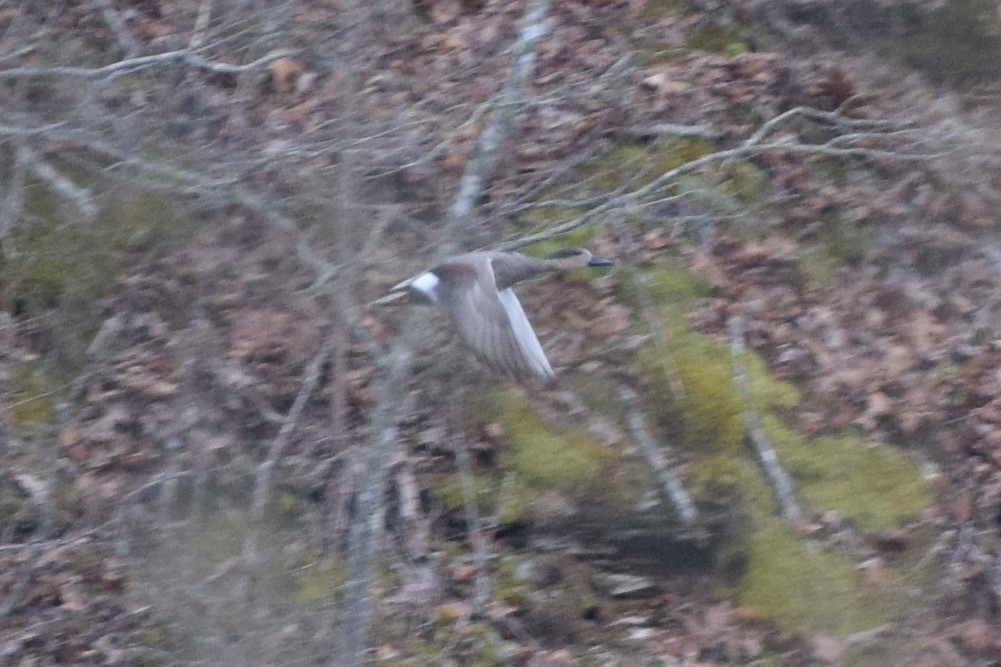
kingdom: Animalia
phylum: Chordata
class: Aves
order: Anseriformes
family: Anatidae
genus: Mareca
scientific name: Mareca strepera
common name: Gadwall
